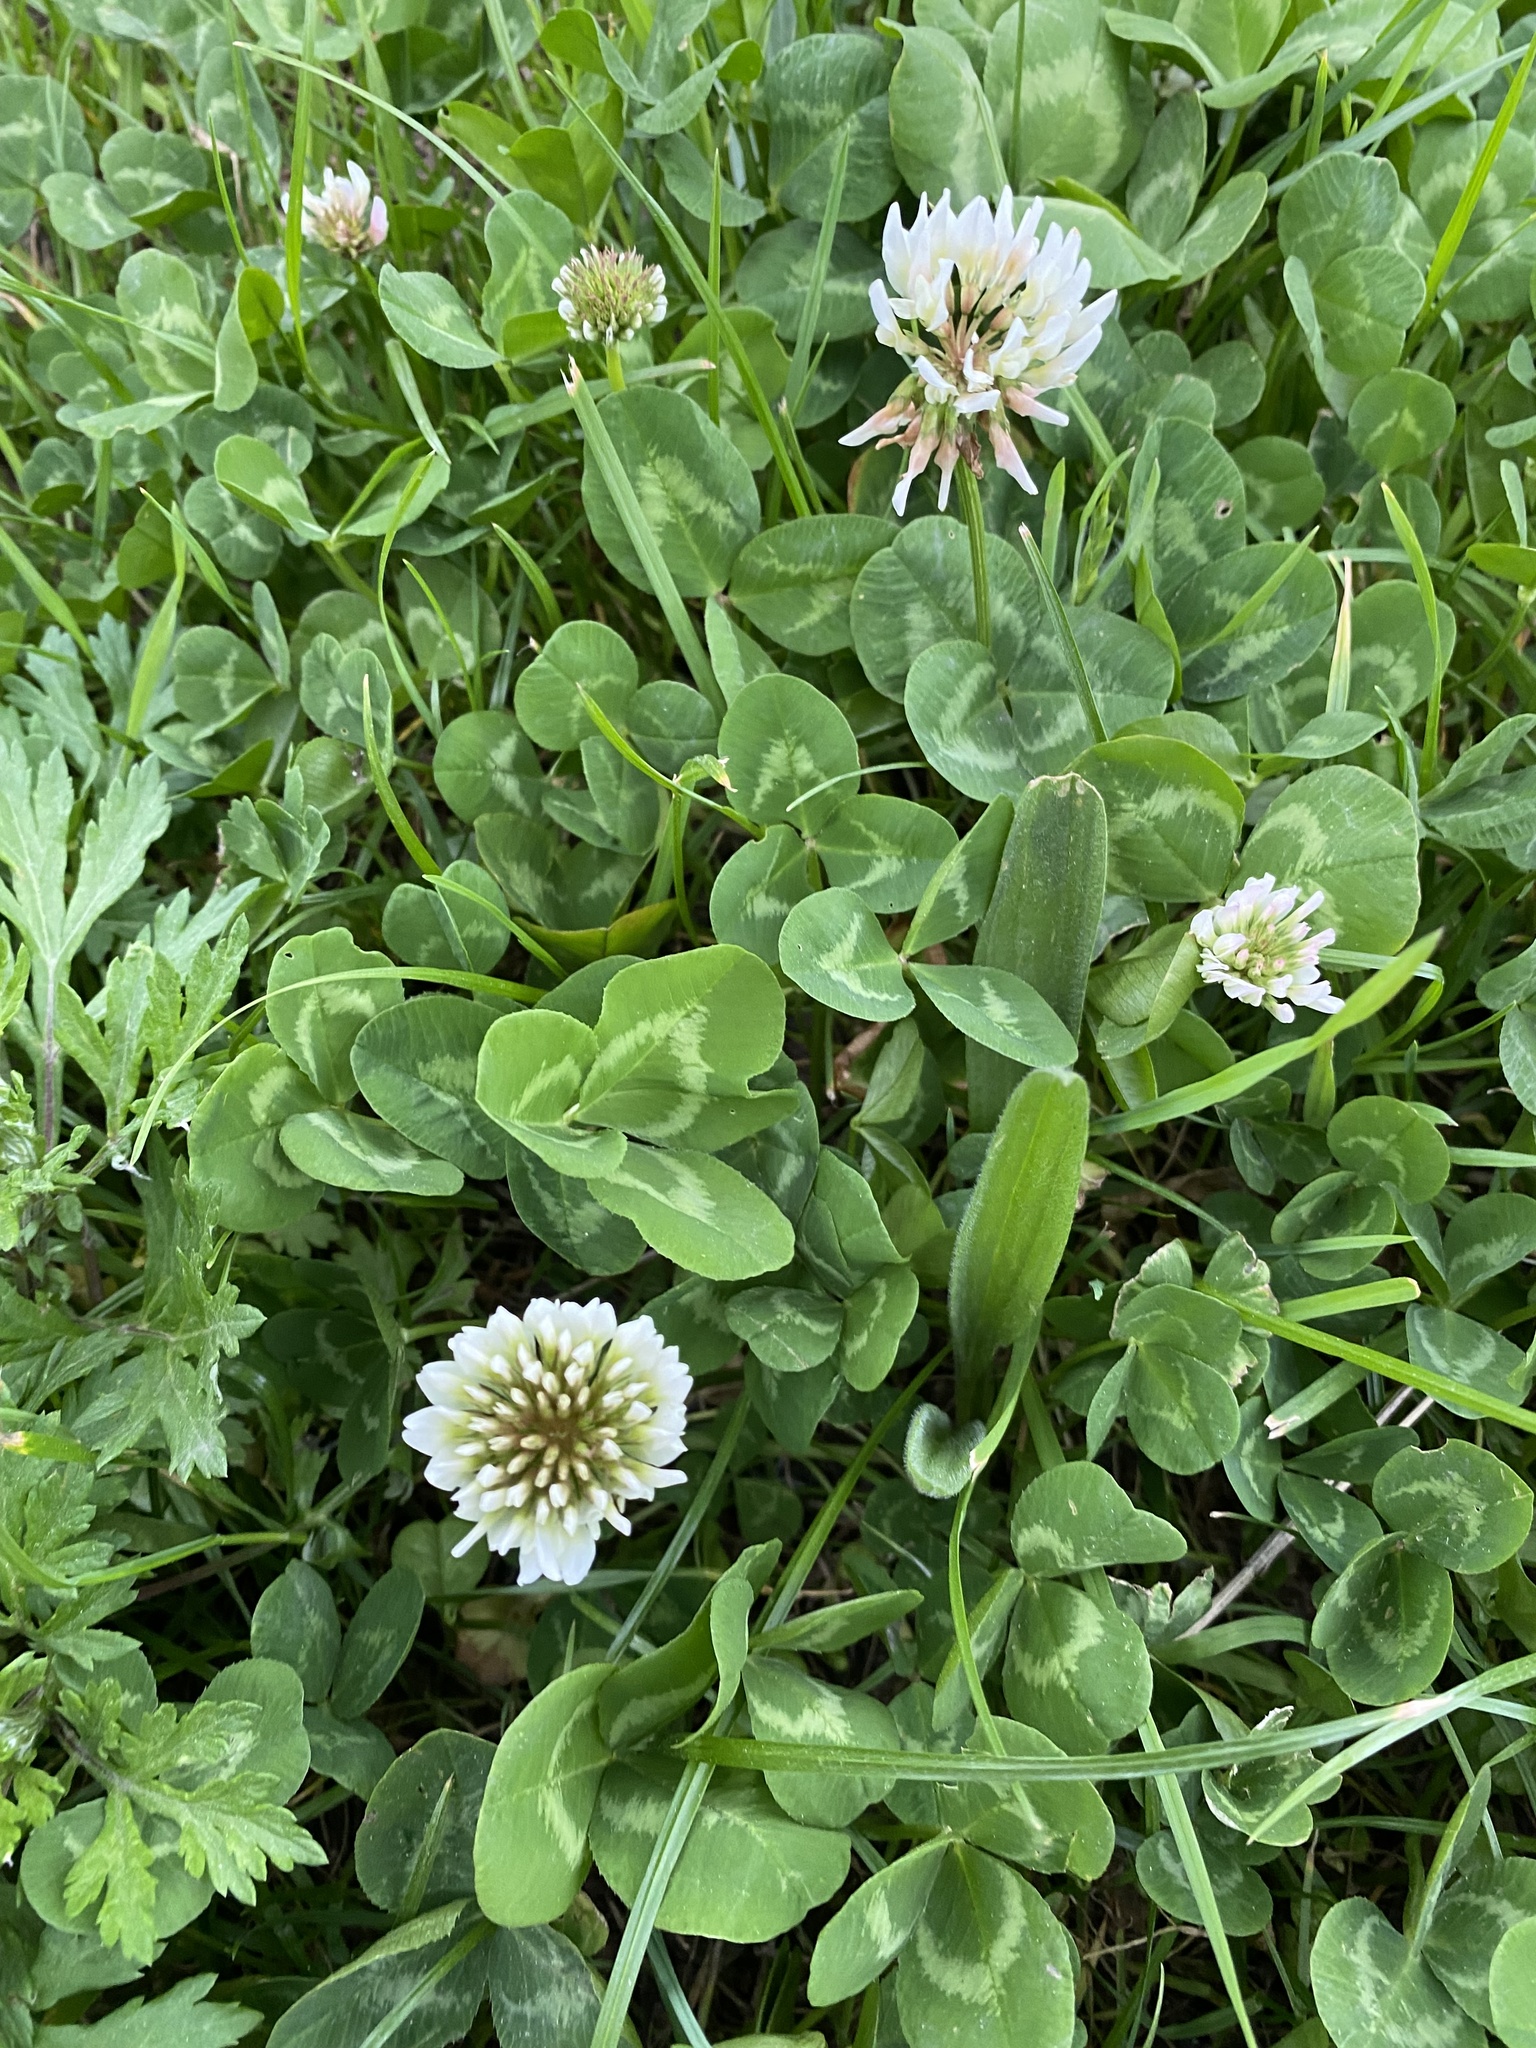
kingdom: Plantae
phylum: Tracheophyta
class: Magnoliopsida
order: Fabales
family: Fabaceae
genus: Trifolium
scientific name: Trifolium repens
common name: White clover
